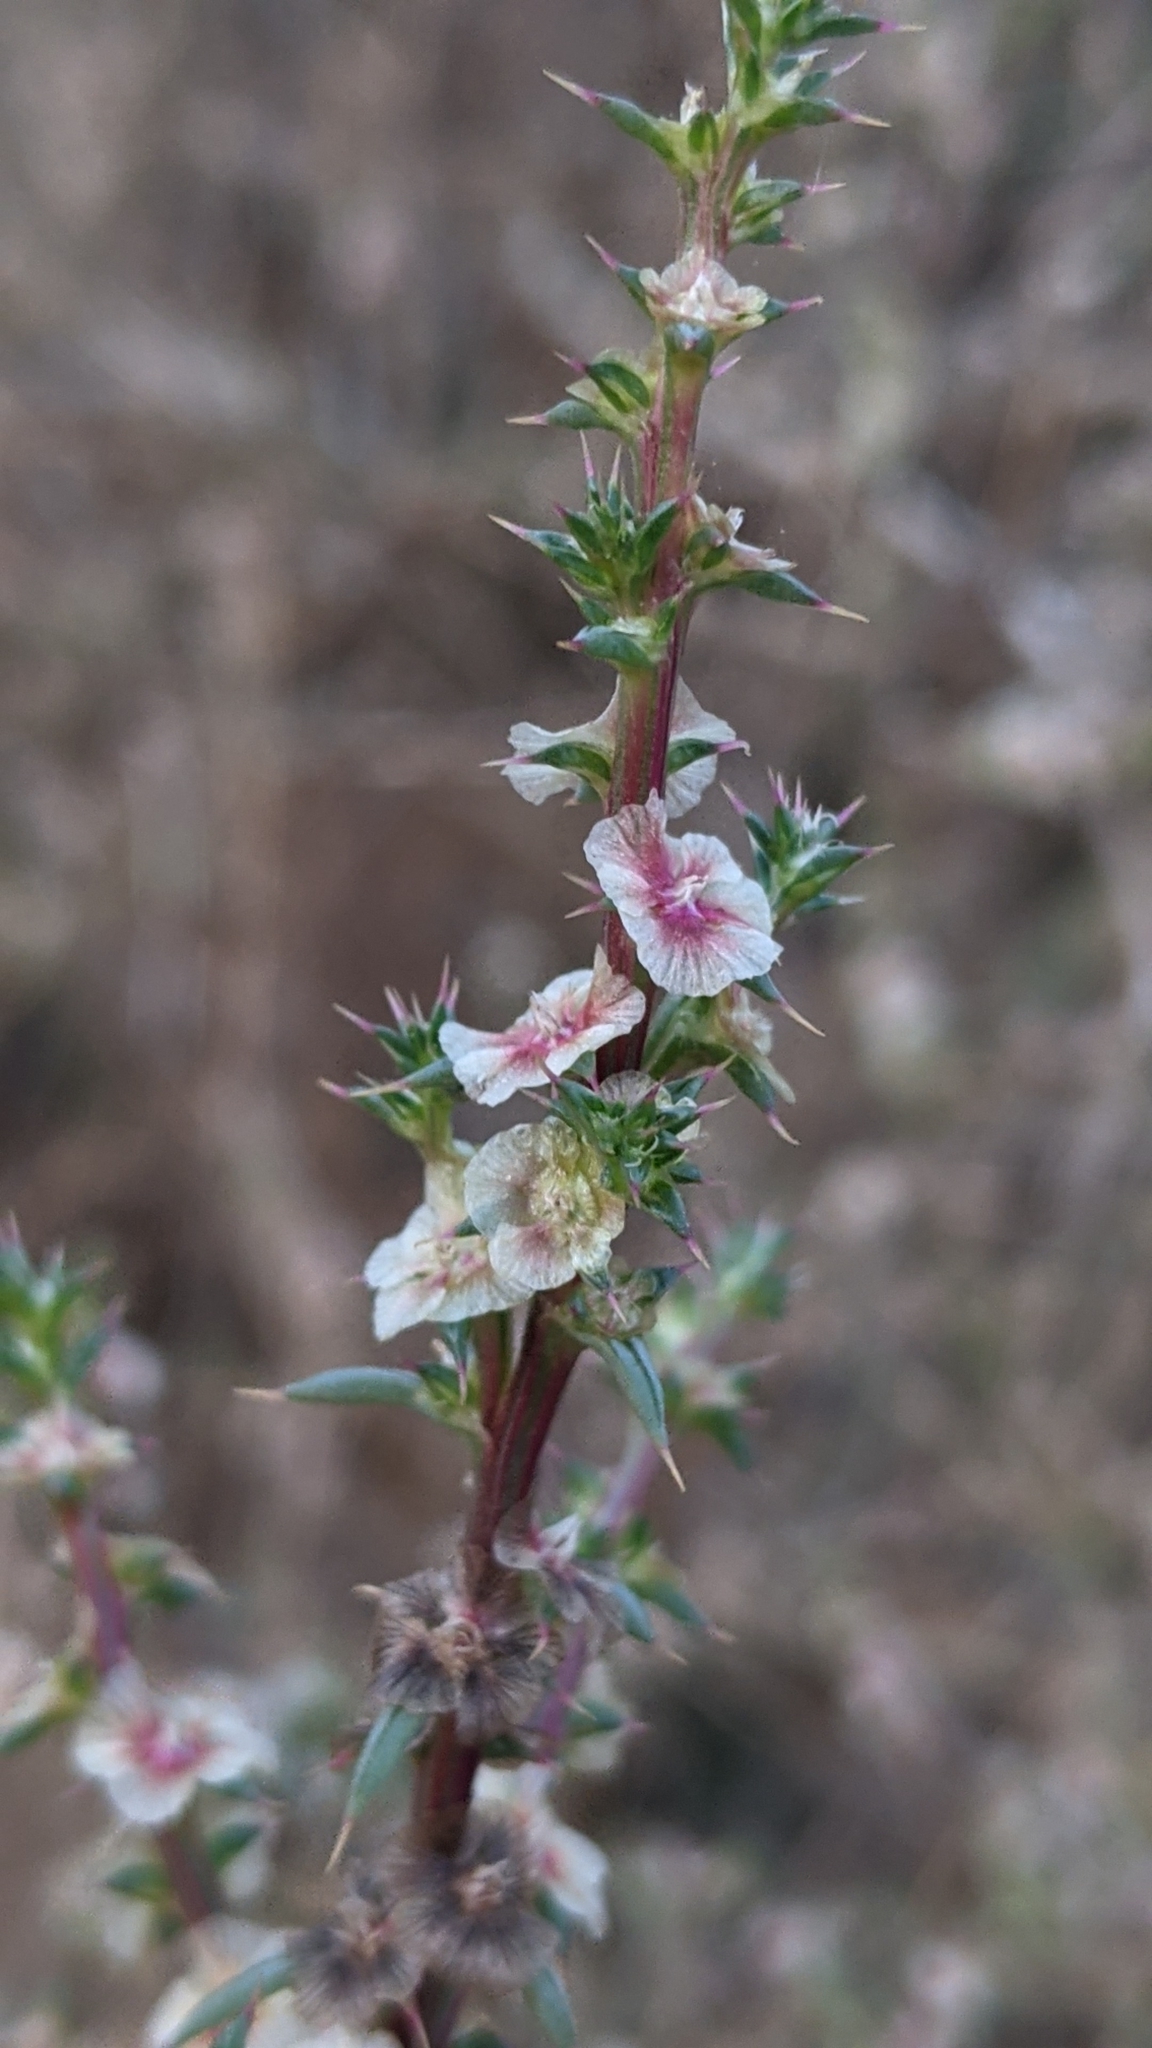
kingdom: Plantae
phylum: Tracheophyta
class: Magnoliopsida
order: Caryophyllales
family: Amaranthaceae
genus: Salsola
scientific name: Salsola australis
